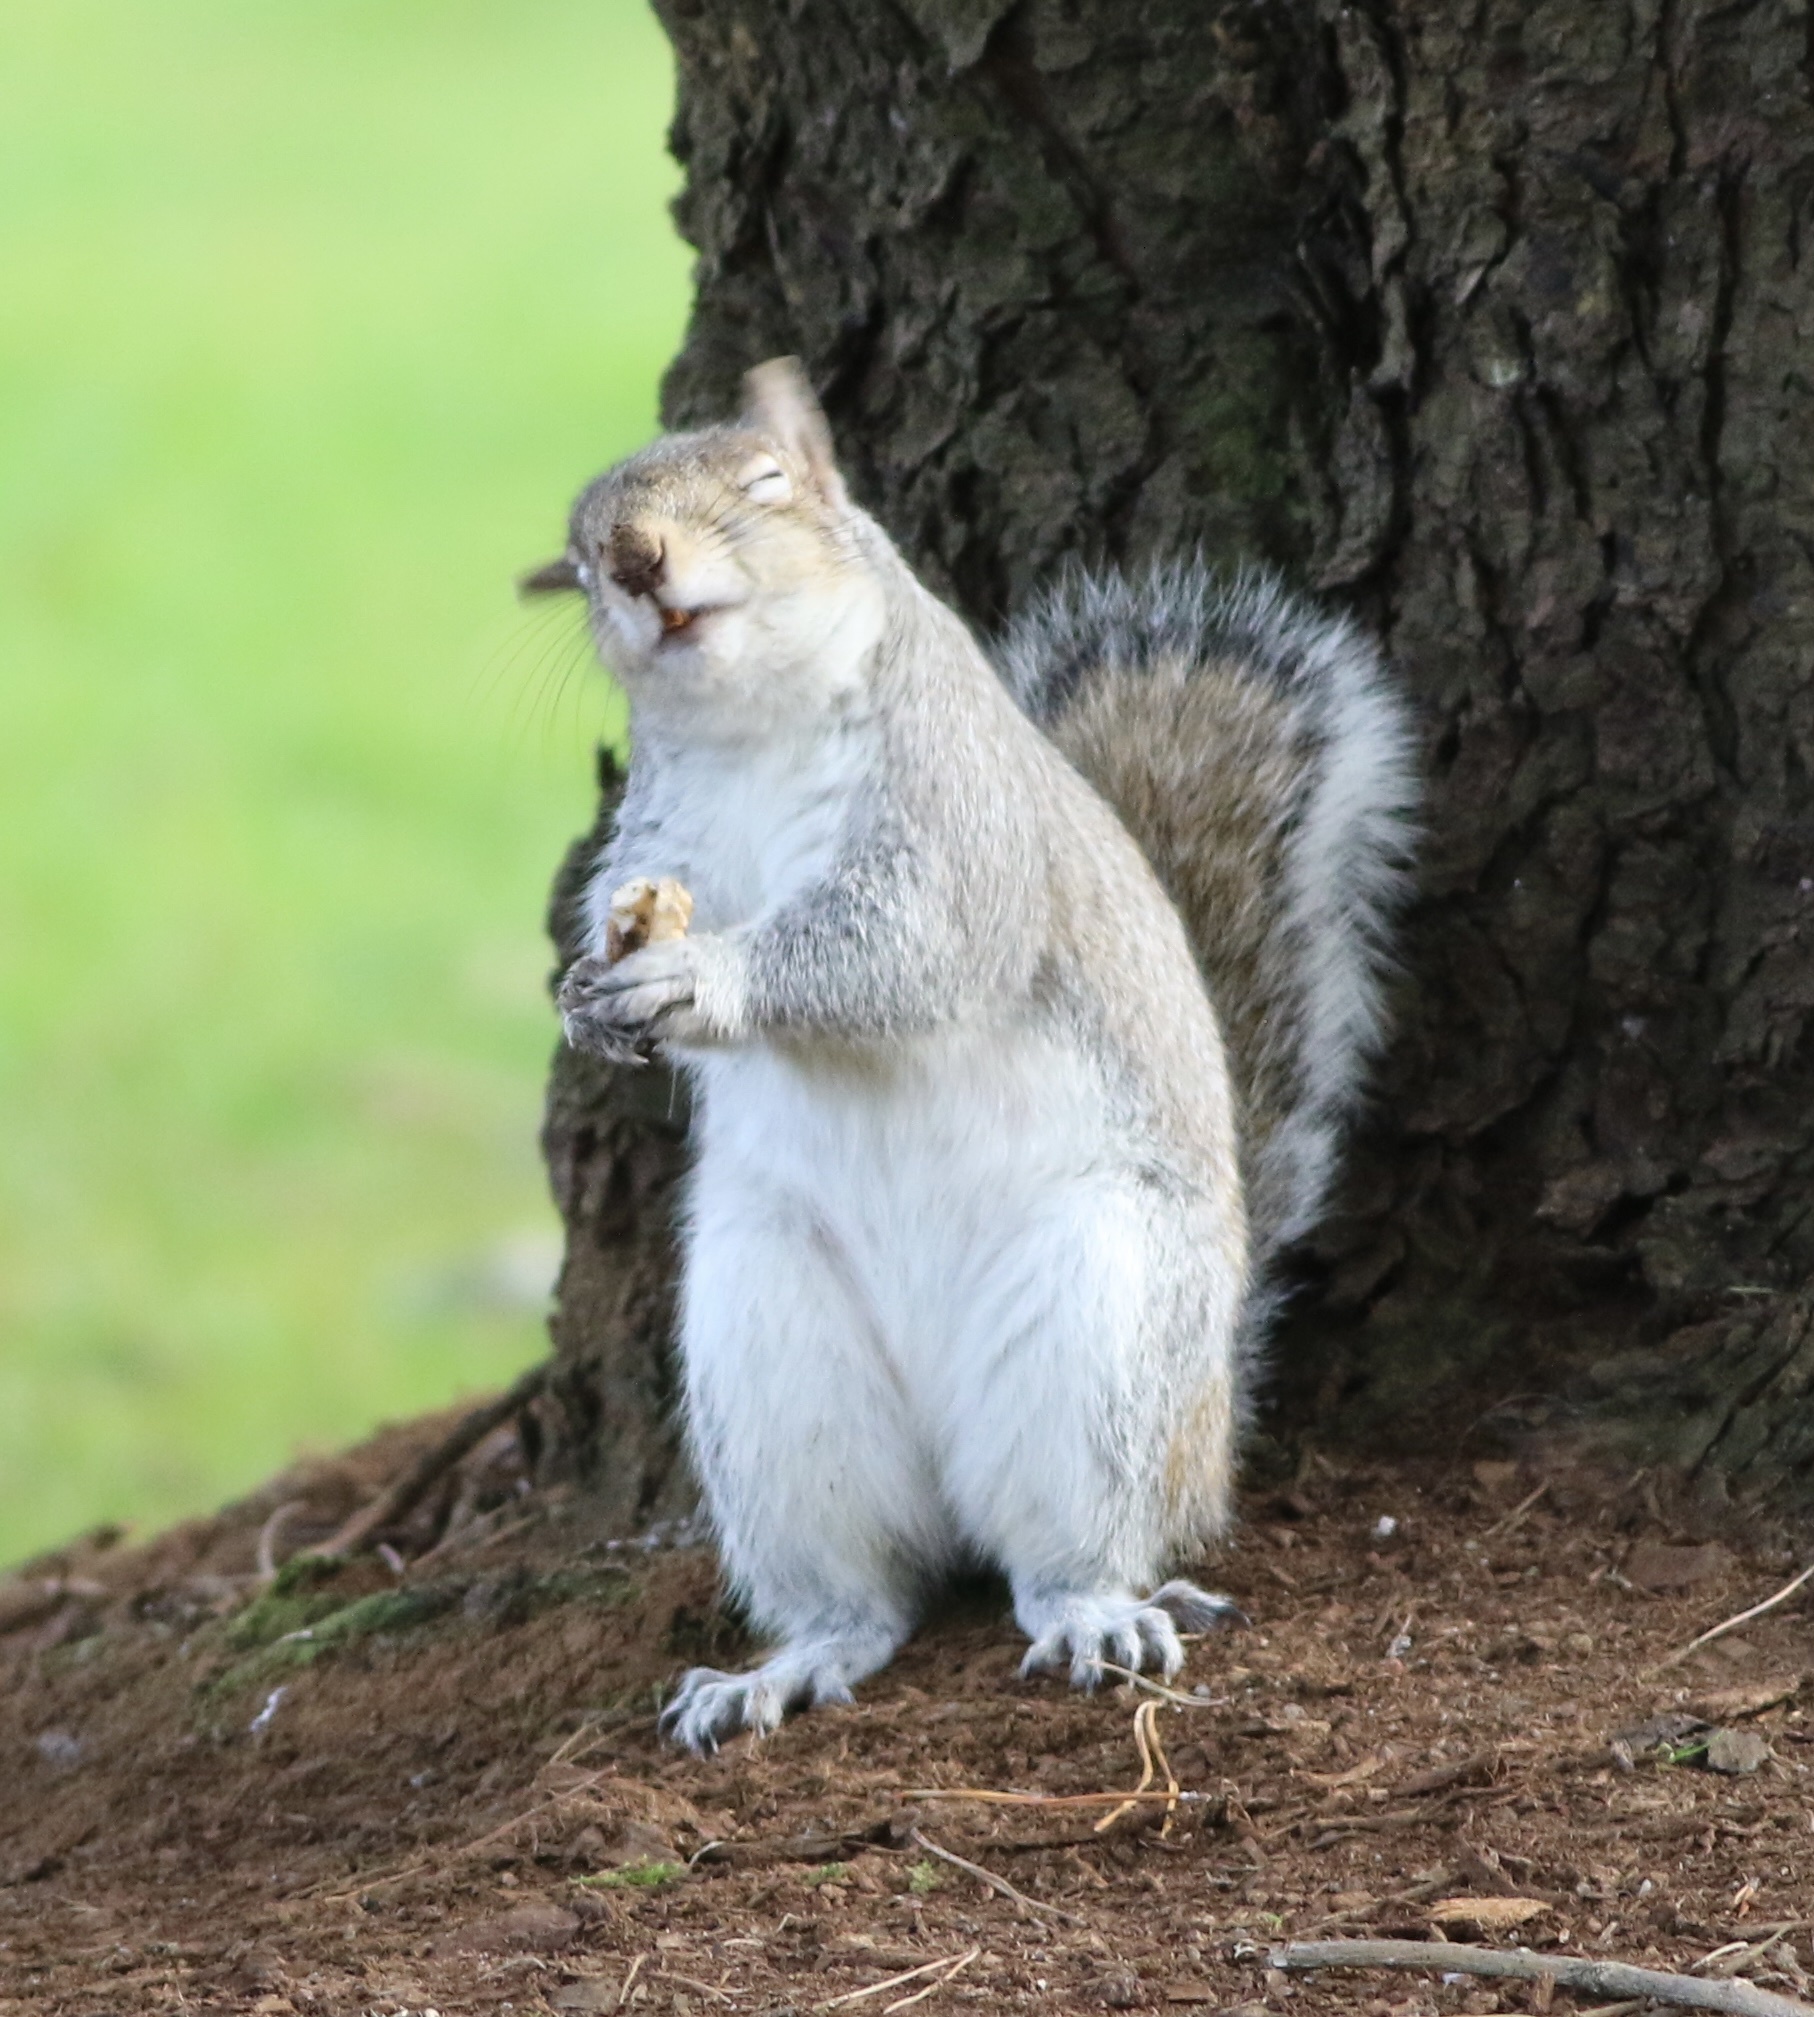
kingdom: Animalia
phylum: Chordata
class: Mammalia
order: Rodentia
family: Sciuridae
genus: Sciurus
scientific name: Sciurus carolinensis
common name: Eastern gray squirrel
